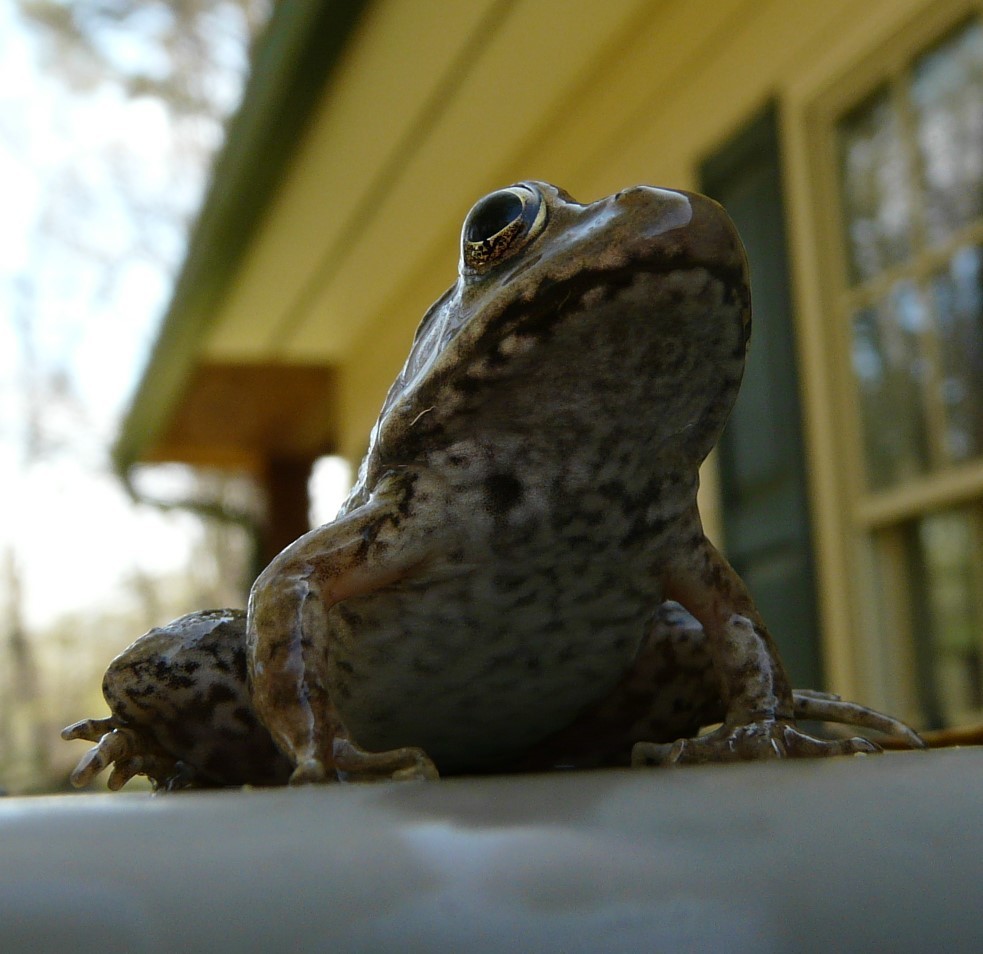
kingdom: Animalia
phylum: Chordata
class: Amphibia
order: Anura
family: Ranidae
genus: Lithobates
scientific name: Lithobates clamitans
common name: Green frog
